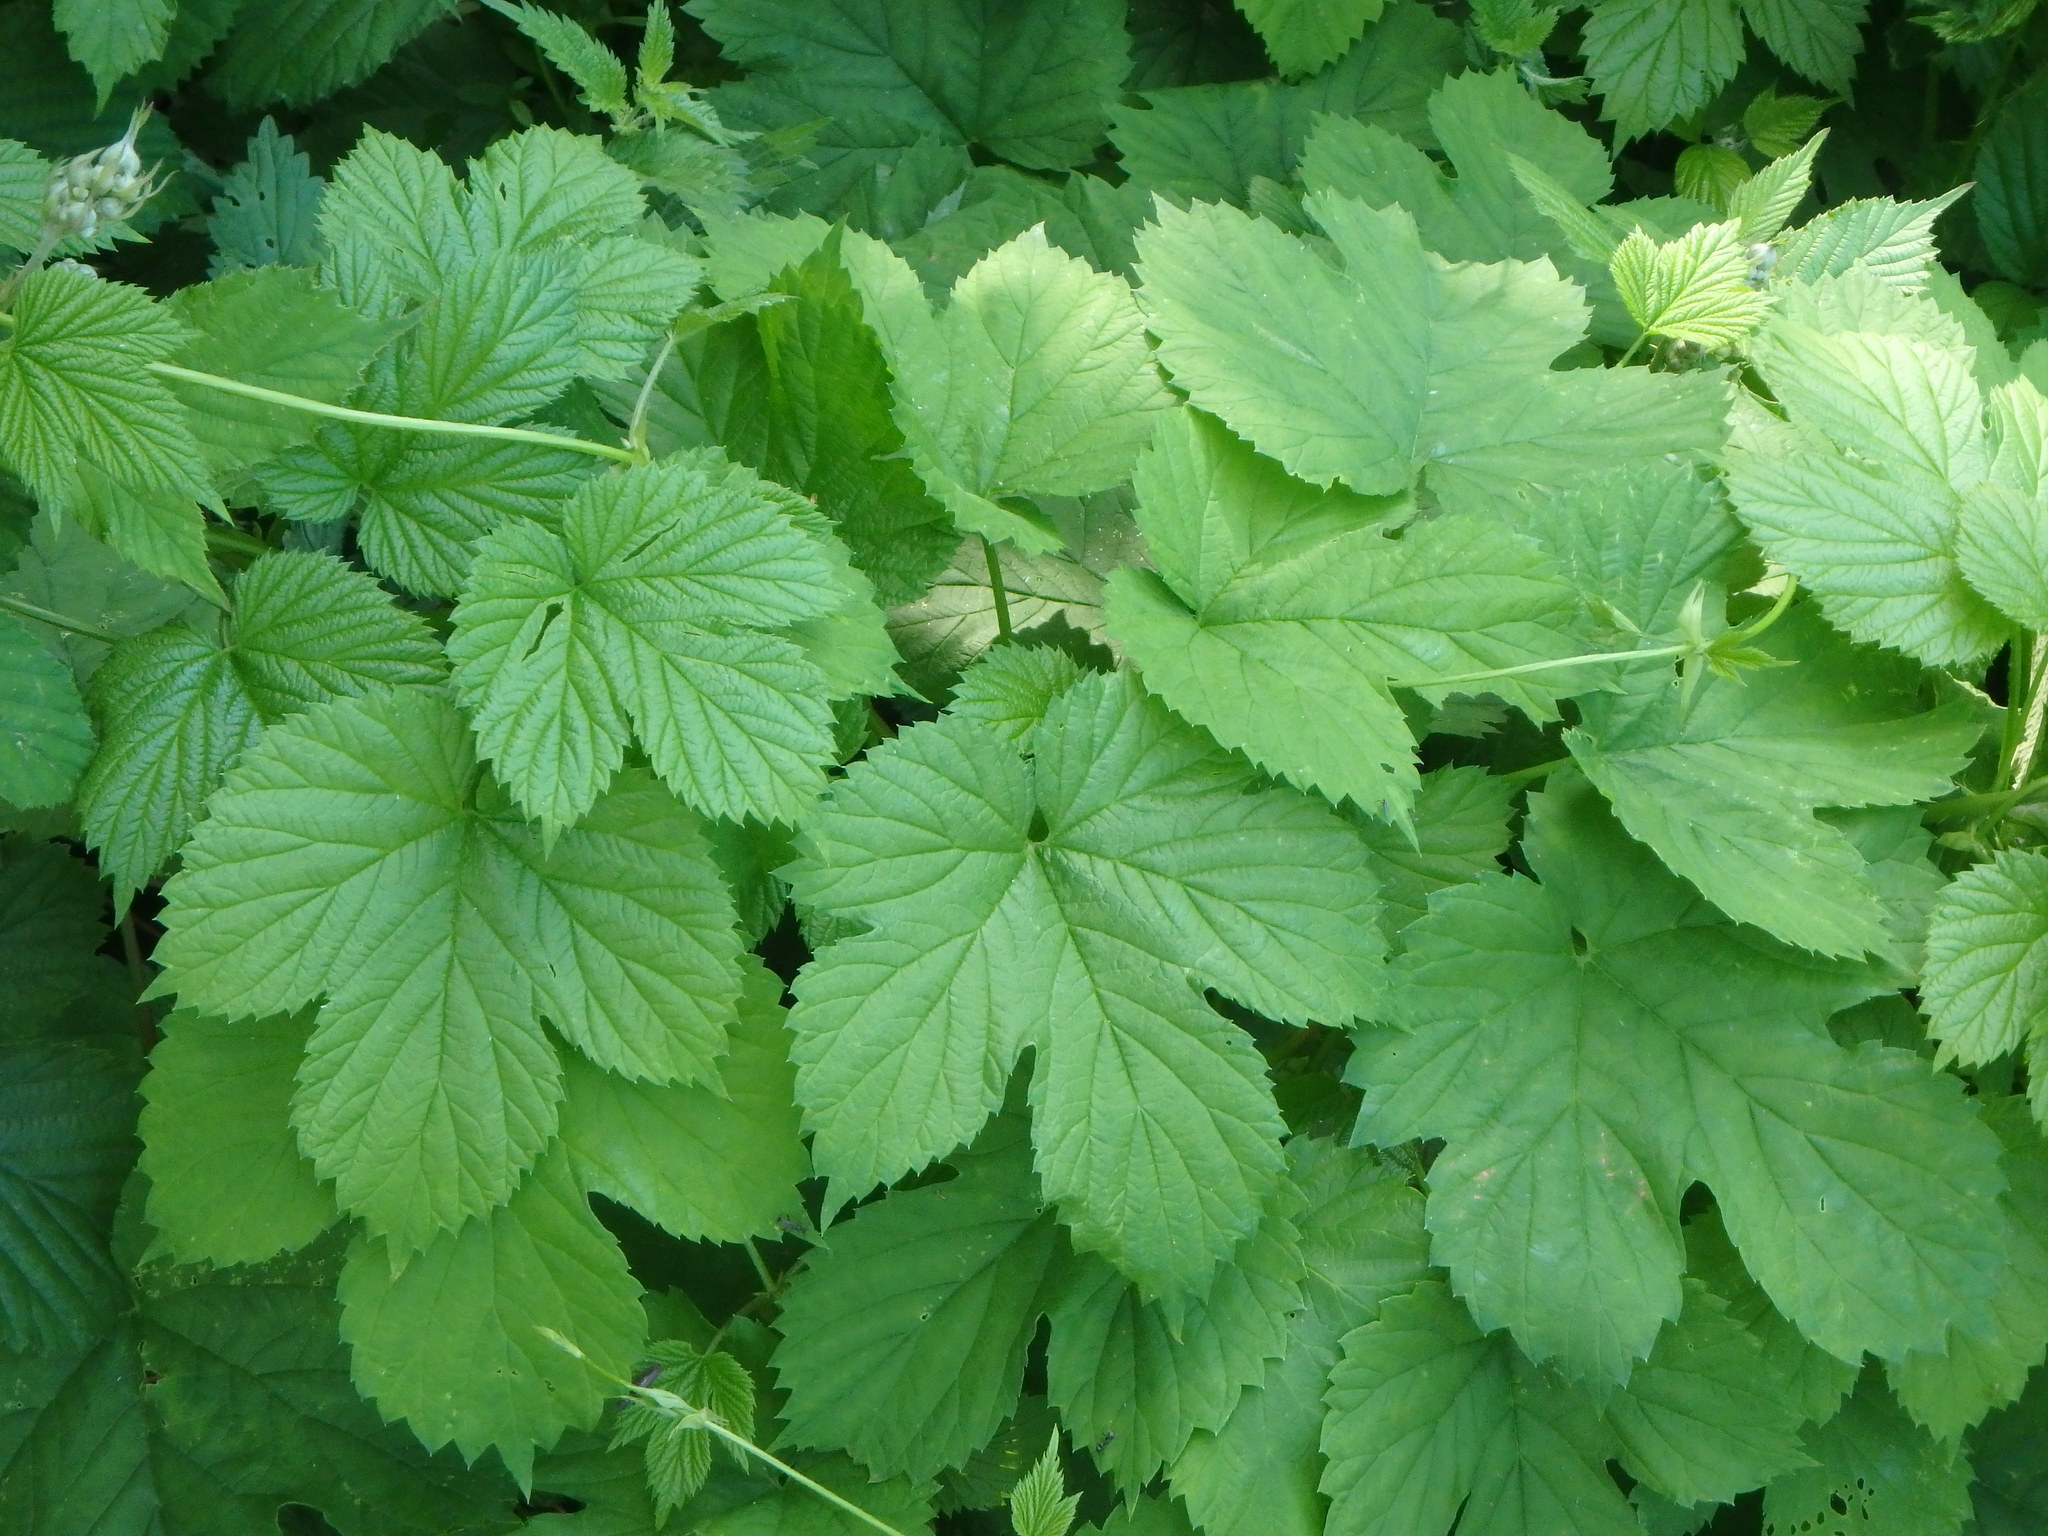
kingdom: Plantae
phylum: Tracheophyta
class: Magnoliopsida
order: Rosales
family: Cannabaceae
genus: Humulus
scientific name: Humulus lupulus
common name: Hop
